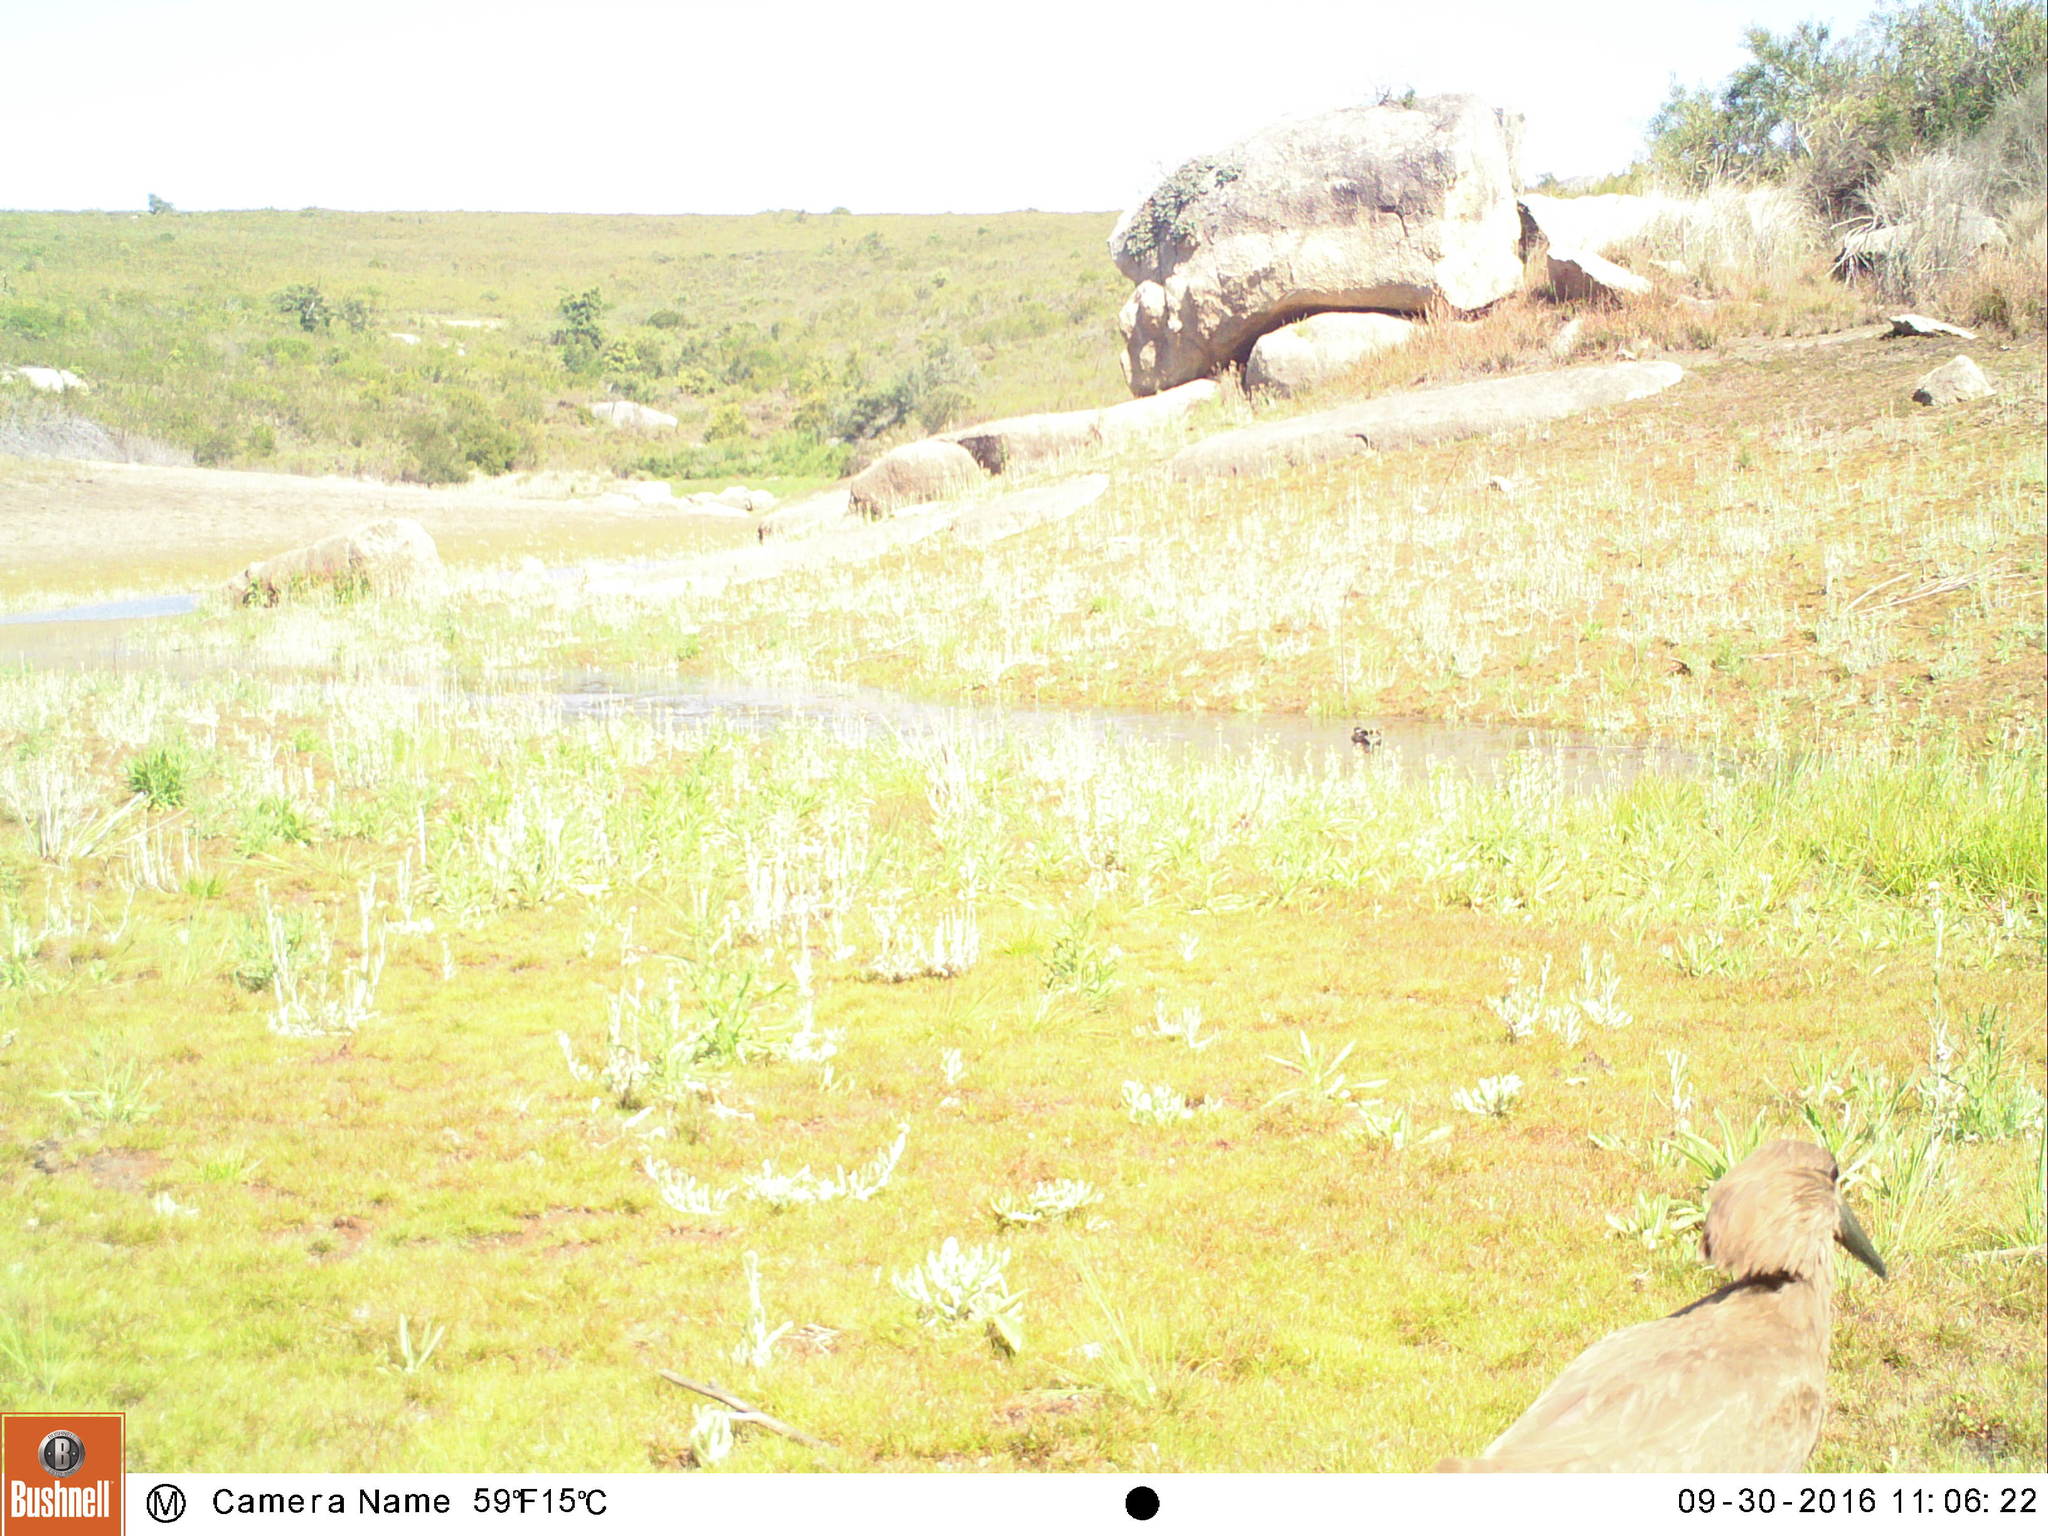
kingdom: Animalia
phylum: Chordata
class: Aves
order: Pelecaniformes
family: Scopidae
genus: Scopus
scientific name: Scopus umbretta
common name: Hamerkop
